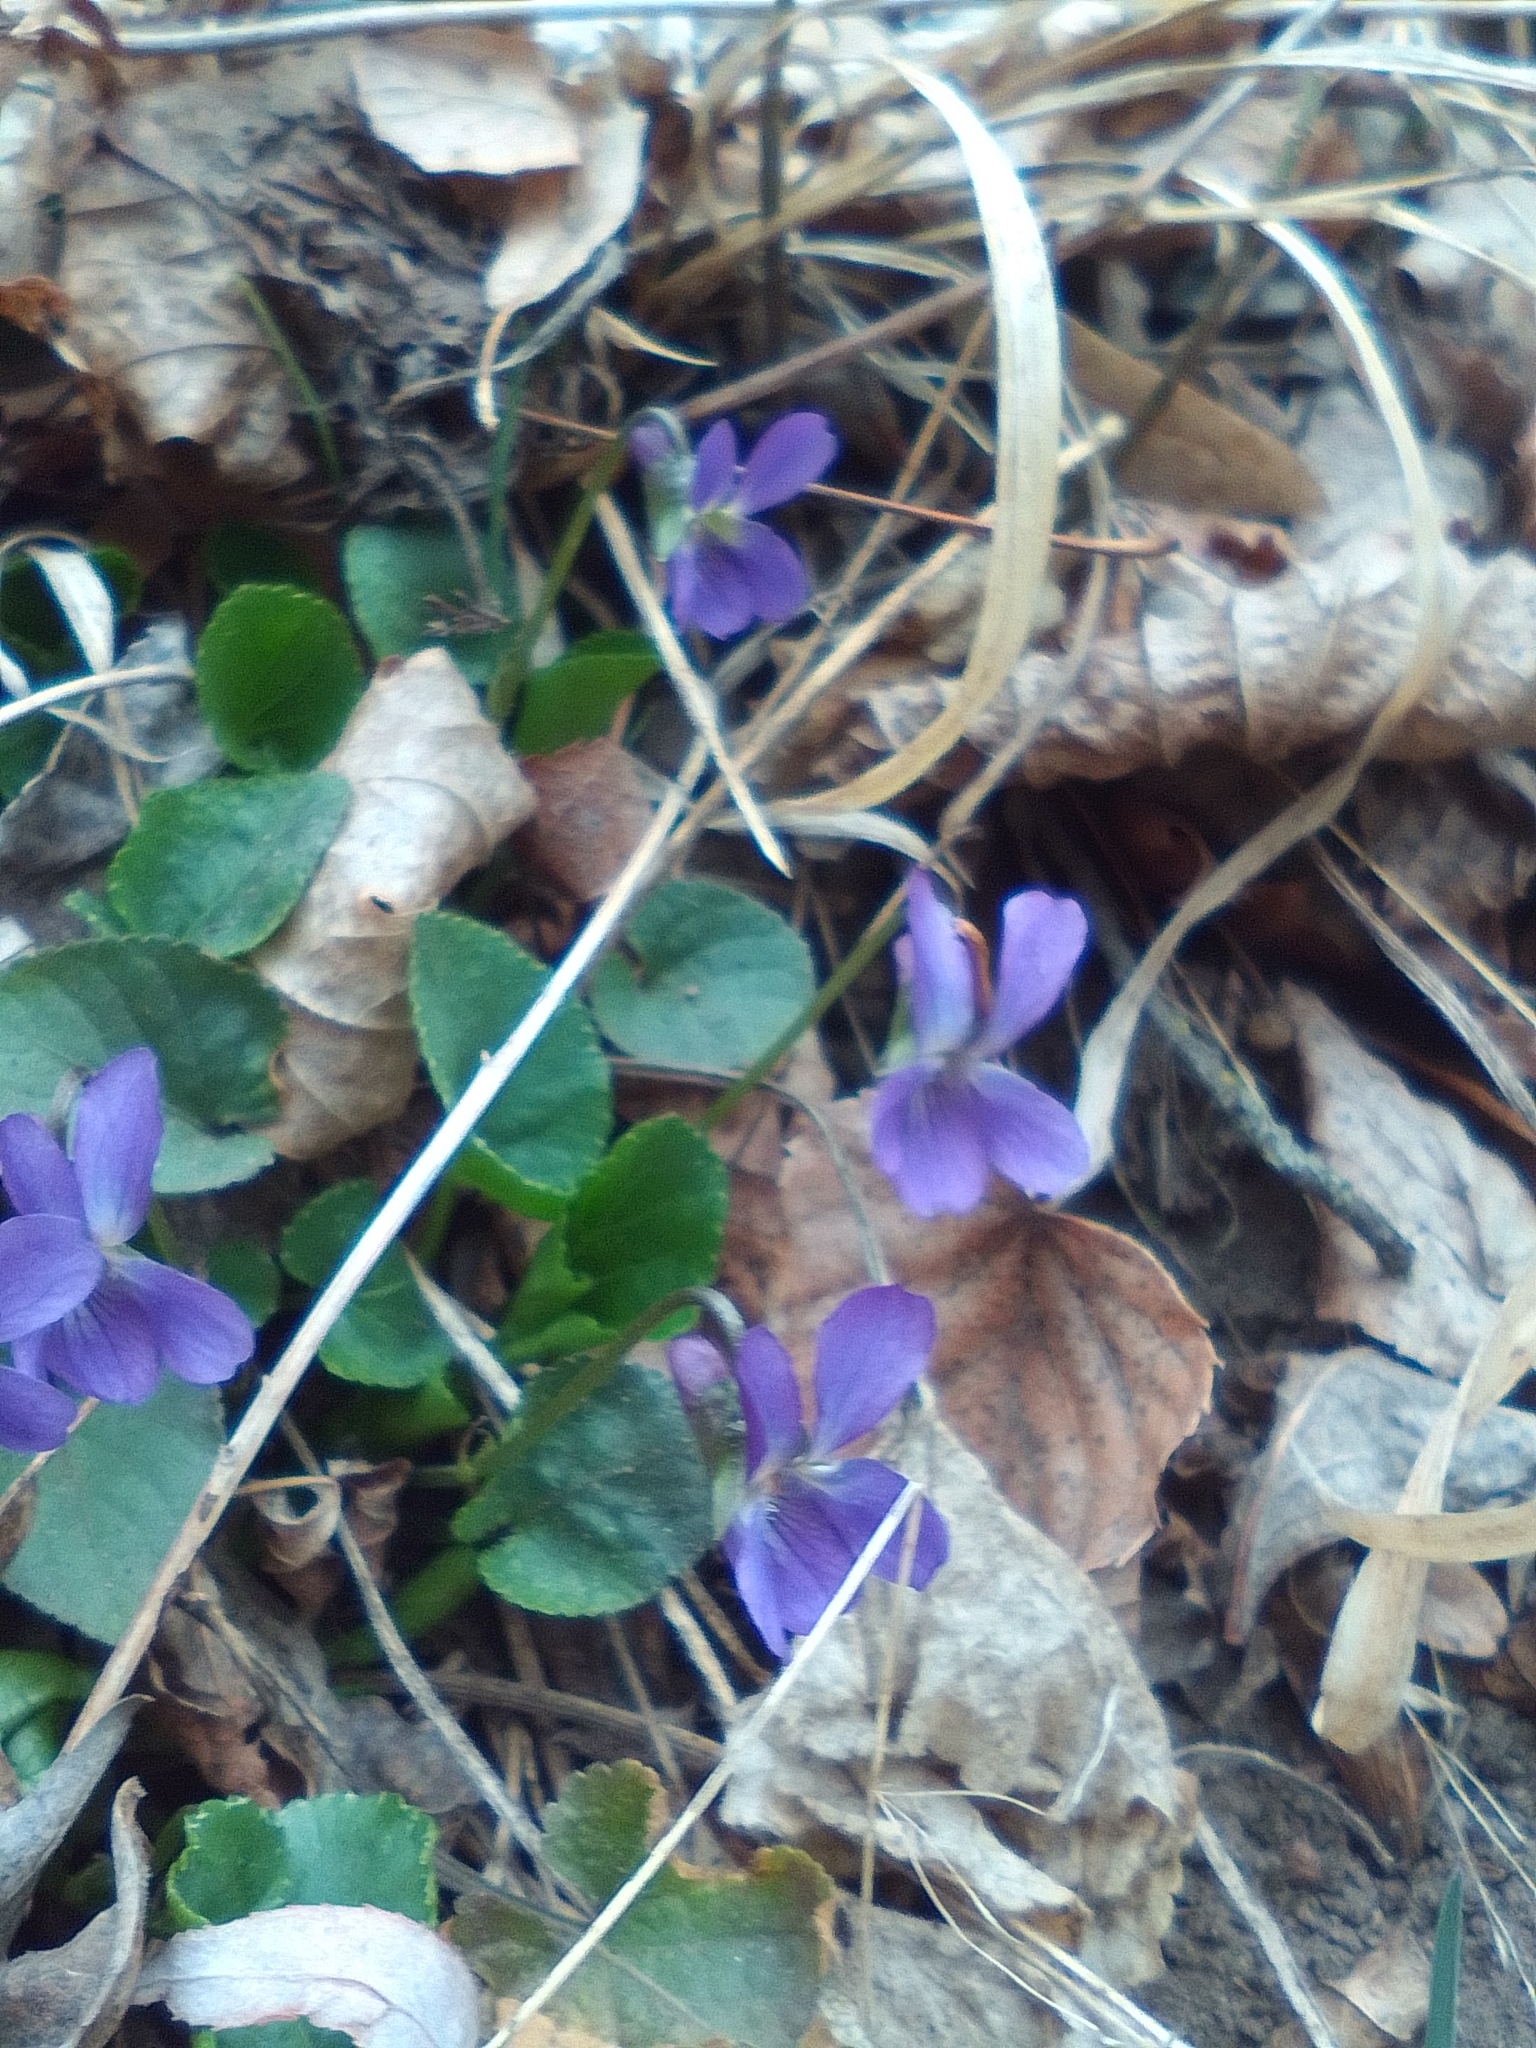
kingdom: Plantae
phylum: Tracheophyta
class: Magnoliopsida
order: Malpighiales
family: Violaceae
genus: Viola
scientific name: Viola alba
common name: White violet
